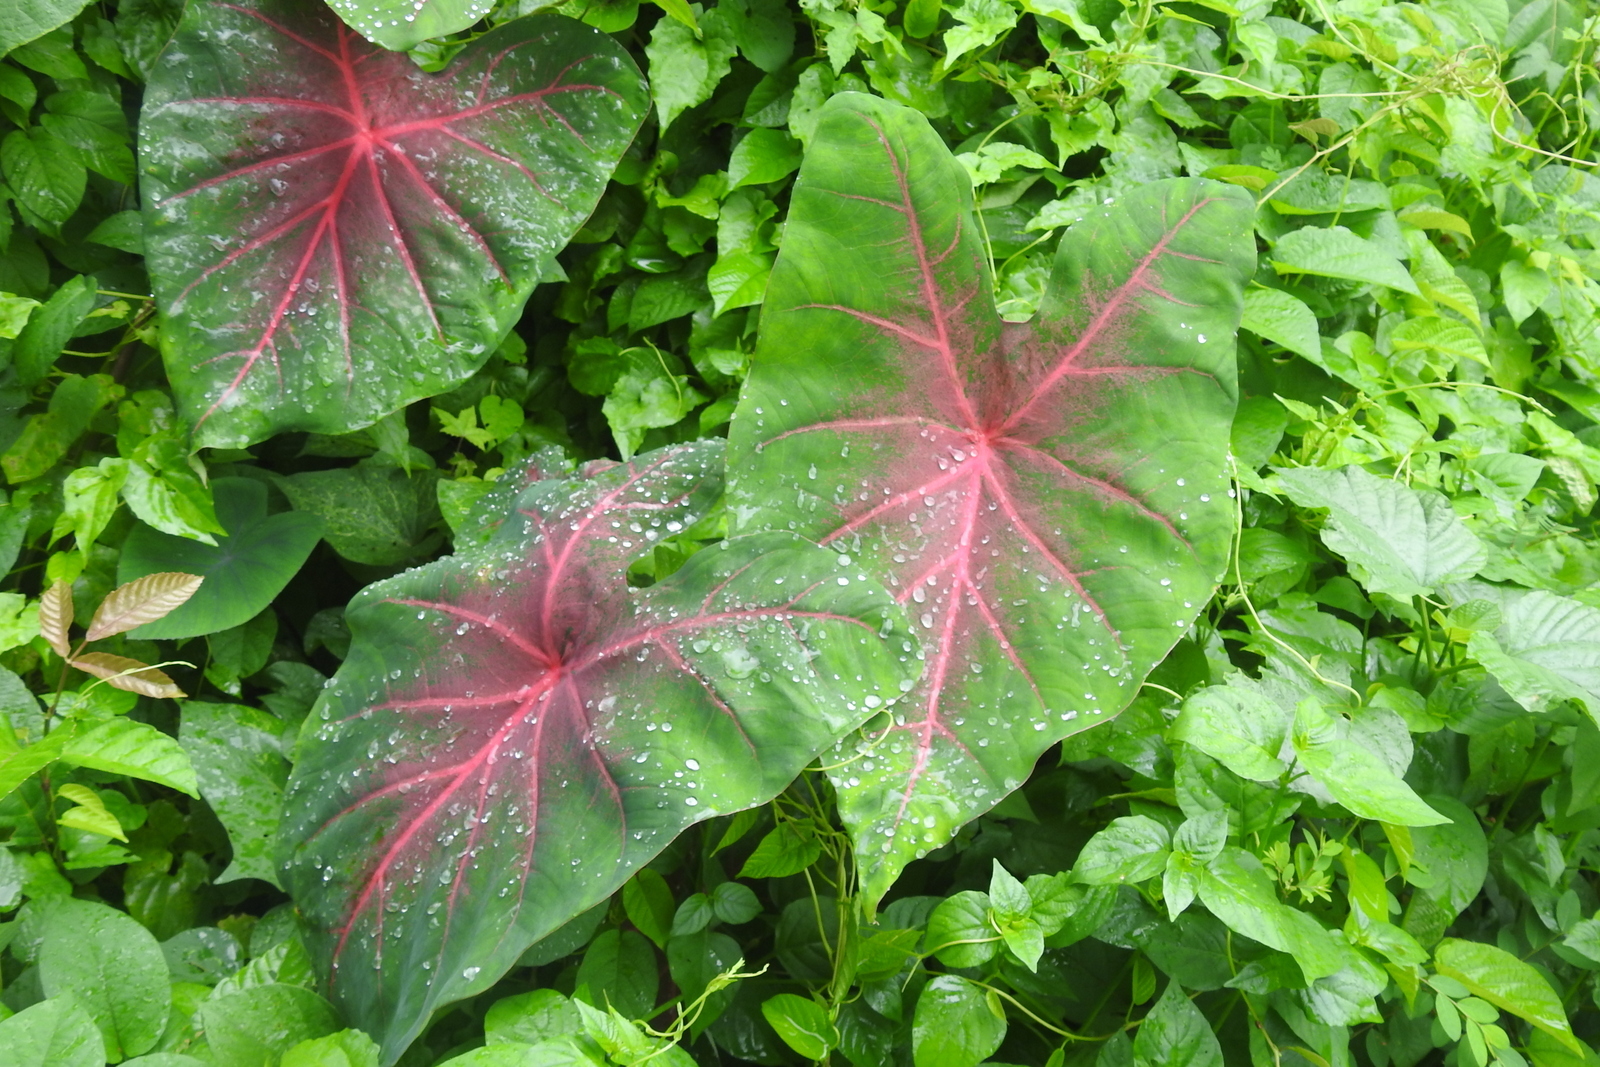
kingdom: Plantae
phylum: Tracheophyta
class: Liliopsida
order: Alismatales
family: Araceae
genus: Caladium
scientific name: Caladium bicolor
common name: Artist's pallet
